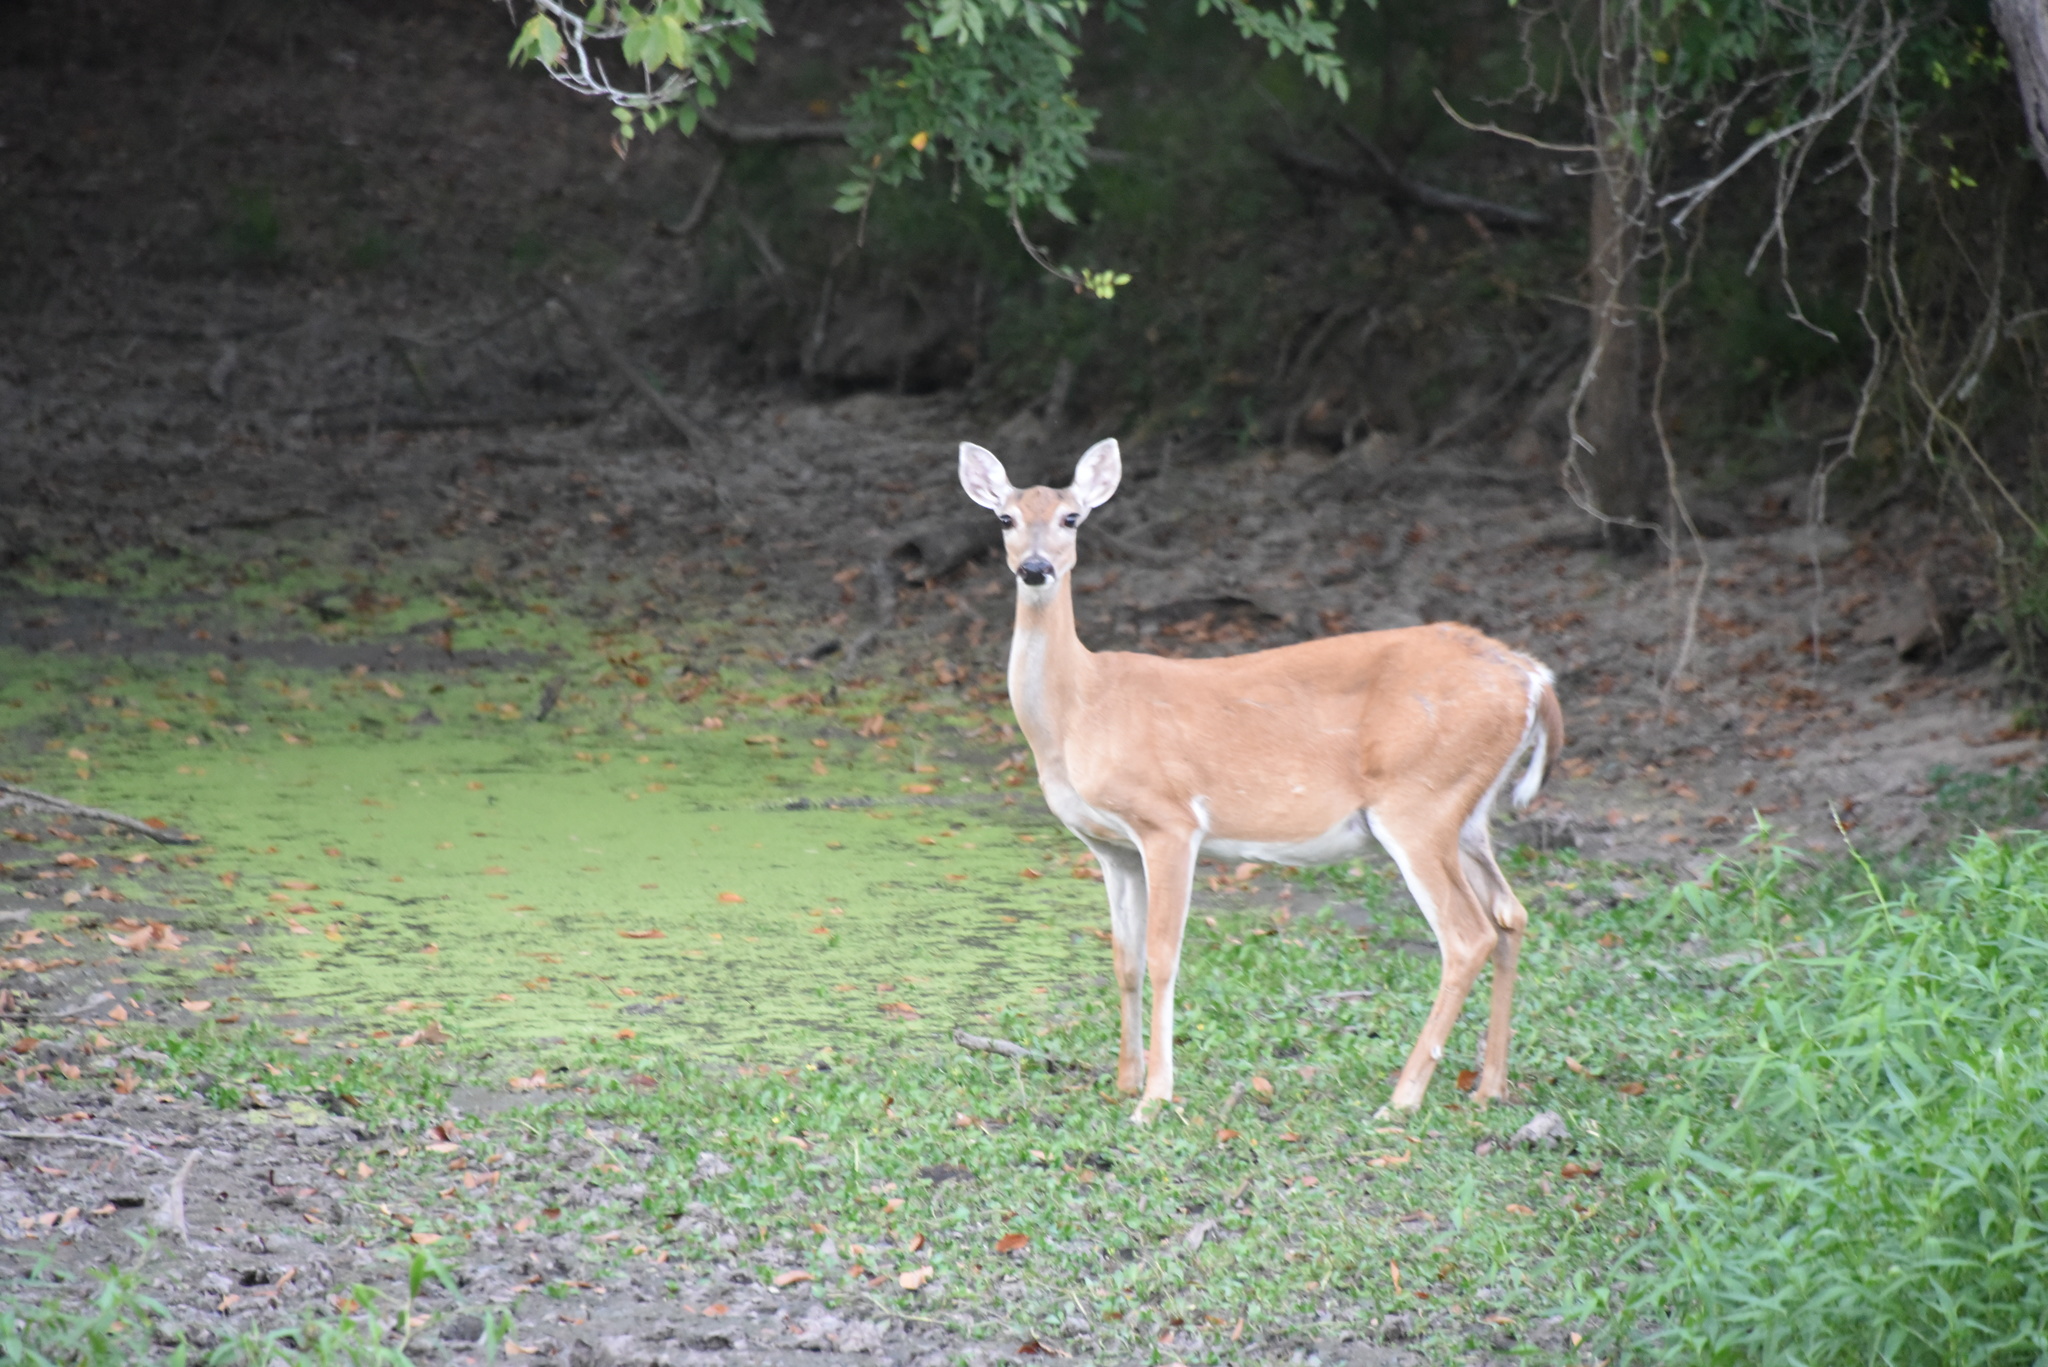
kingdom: Animalia
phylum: Chordata
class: Mammalia
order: Artiodactyla
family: Cervidae
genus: Odocoileus
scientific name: Odocoileus virginianus
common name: White-tailed deer
